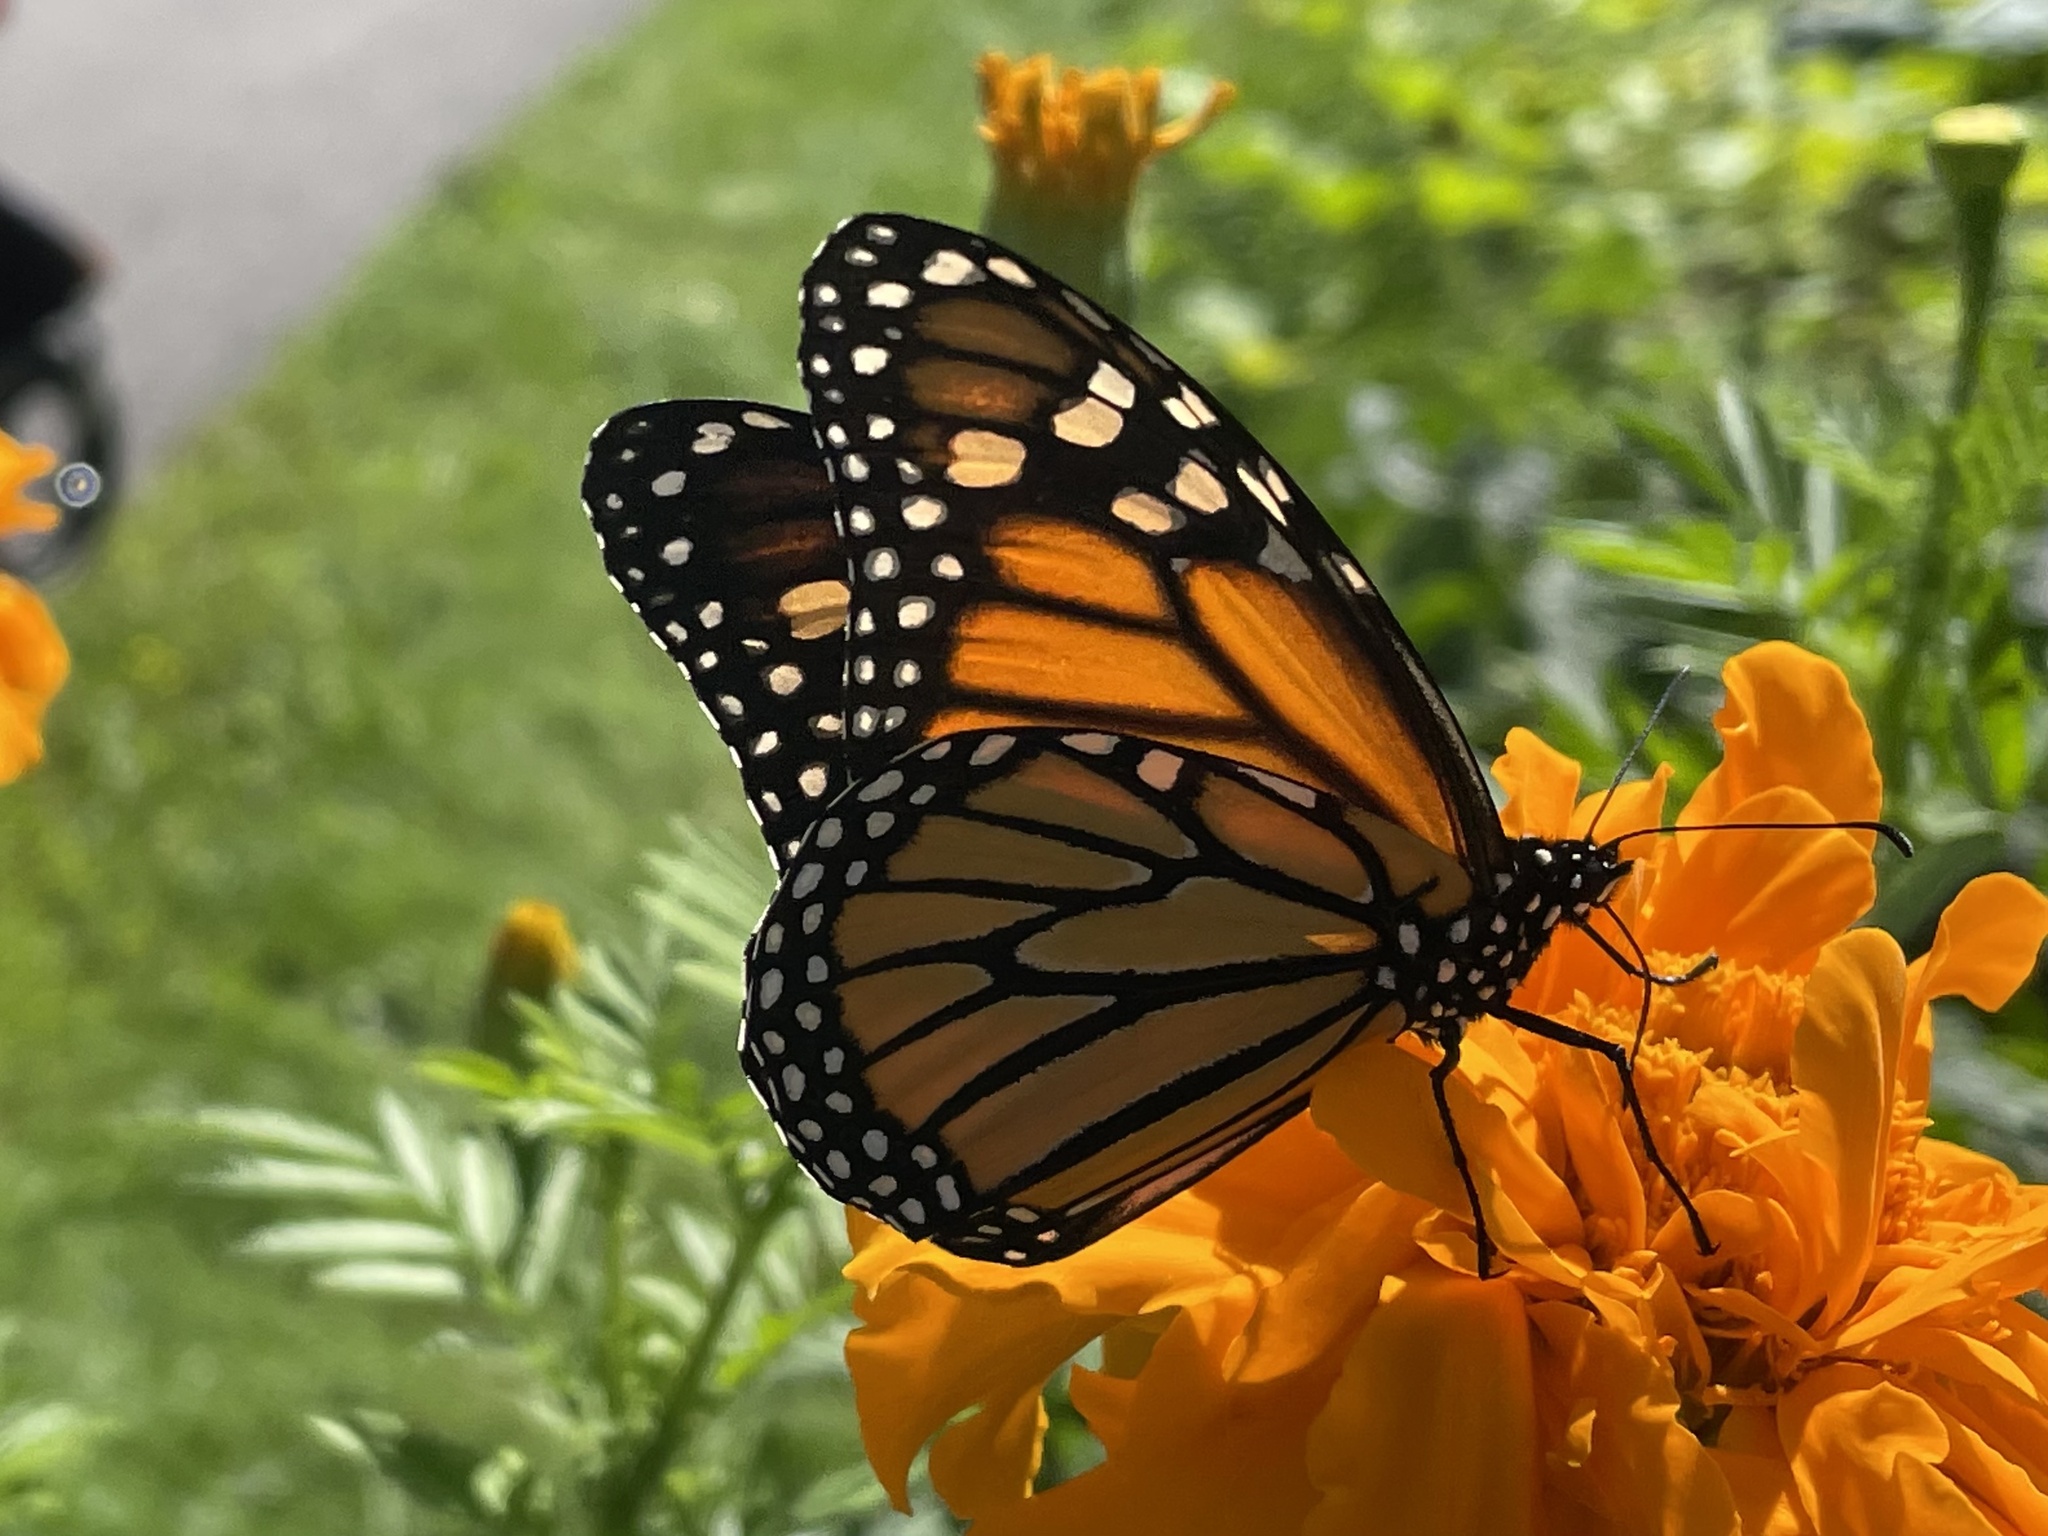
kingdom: Animalia
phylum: Arthropoda
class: Insecta
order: Lepidoptera
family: Nymphalidae
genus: Danaus
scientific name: Danaus plexippus
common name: Monarch
